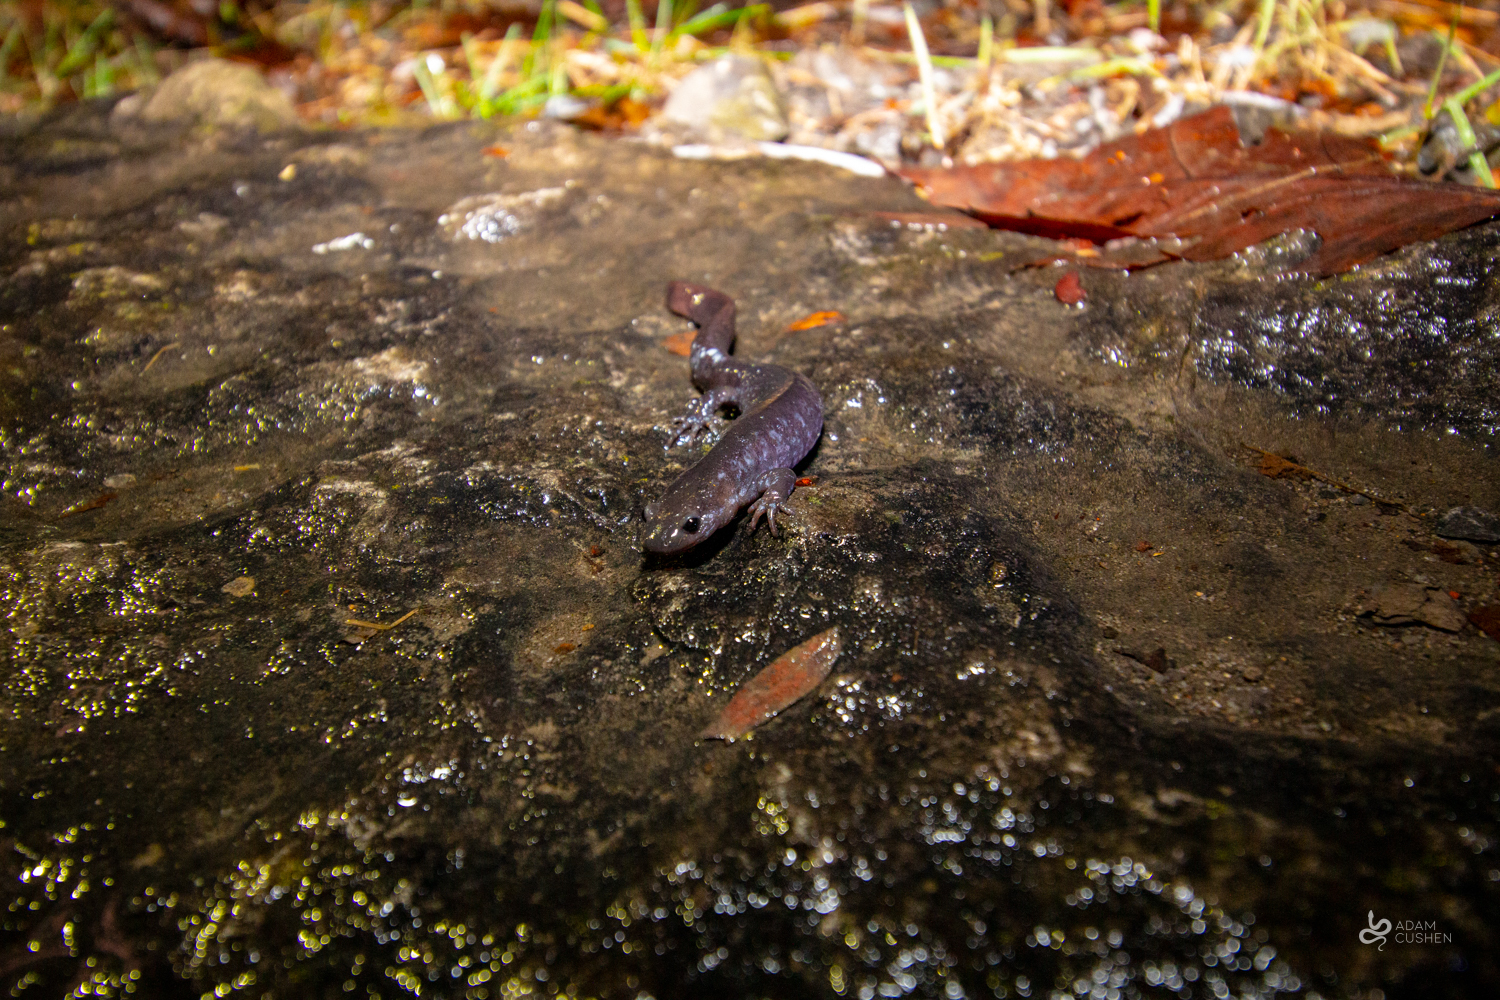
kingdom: Animalia
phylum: Chordata
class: Amphibia
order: Caudata
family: Ambystomatidae
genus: Ambystoma
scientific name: Ambystoma laterale
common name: Blue-spotted salamander
